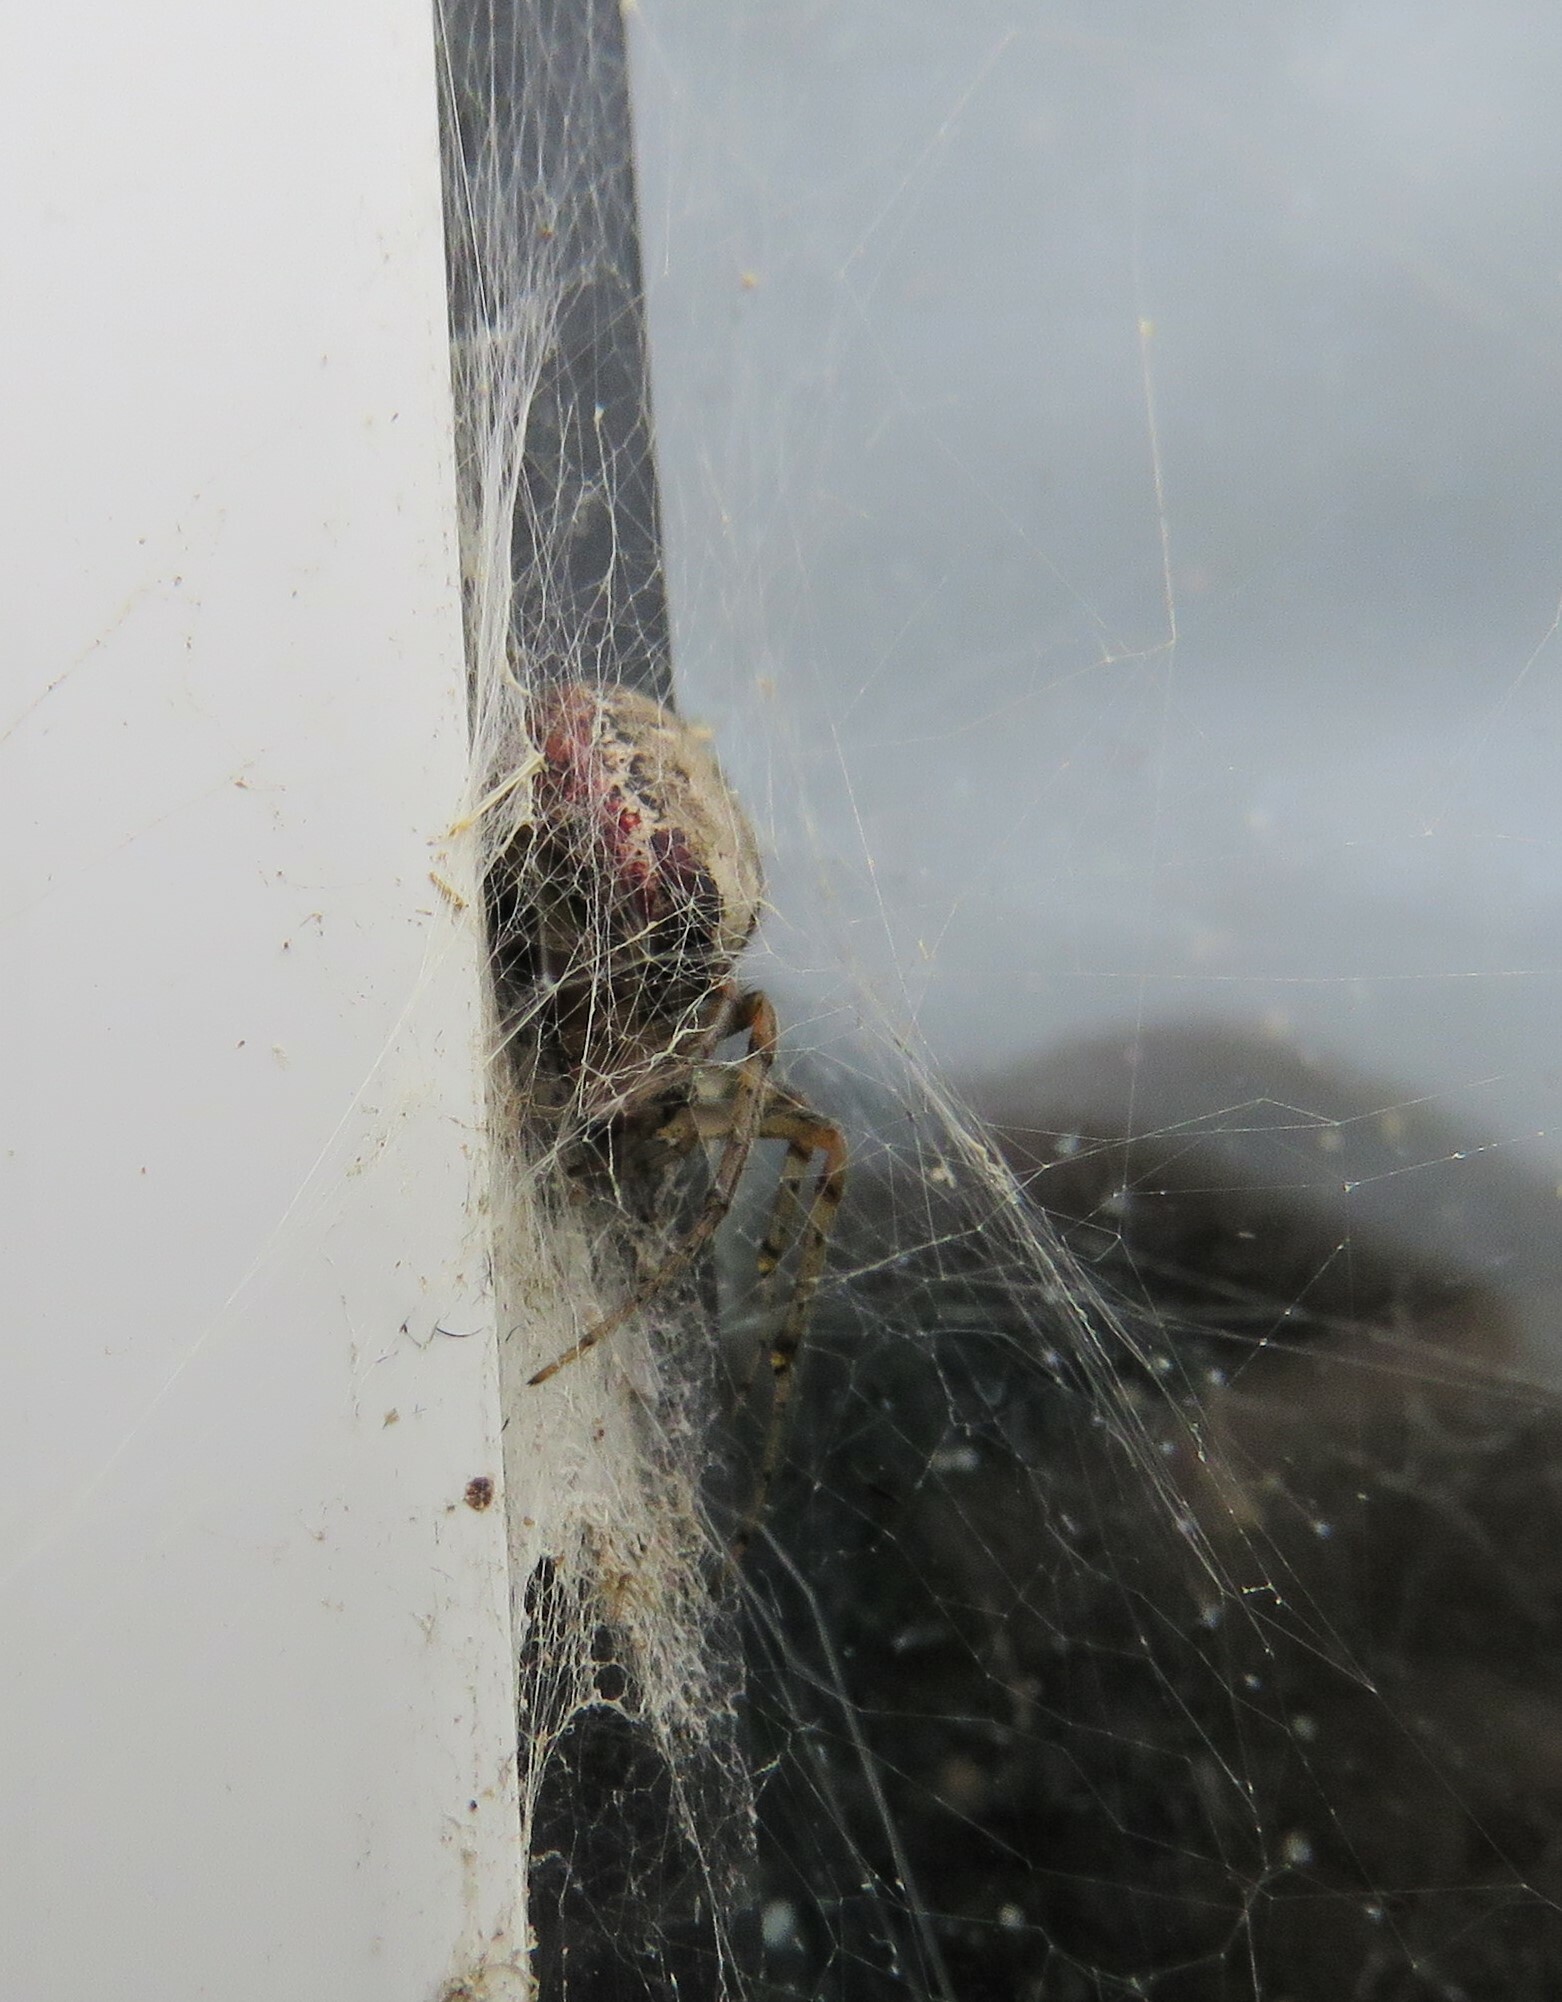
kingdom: Animalia
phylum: Arthropoda
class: Arachnida
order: Araneae
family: Araneidae
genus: Zygiella
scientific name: Zygiella atrica
